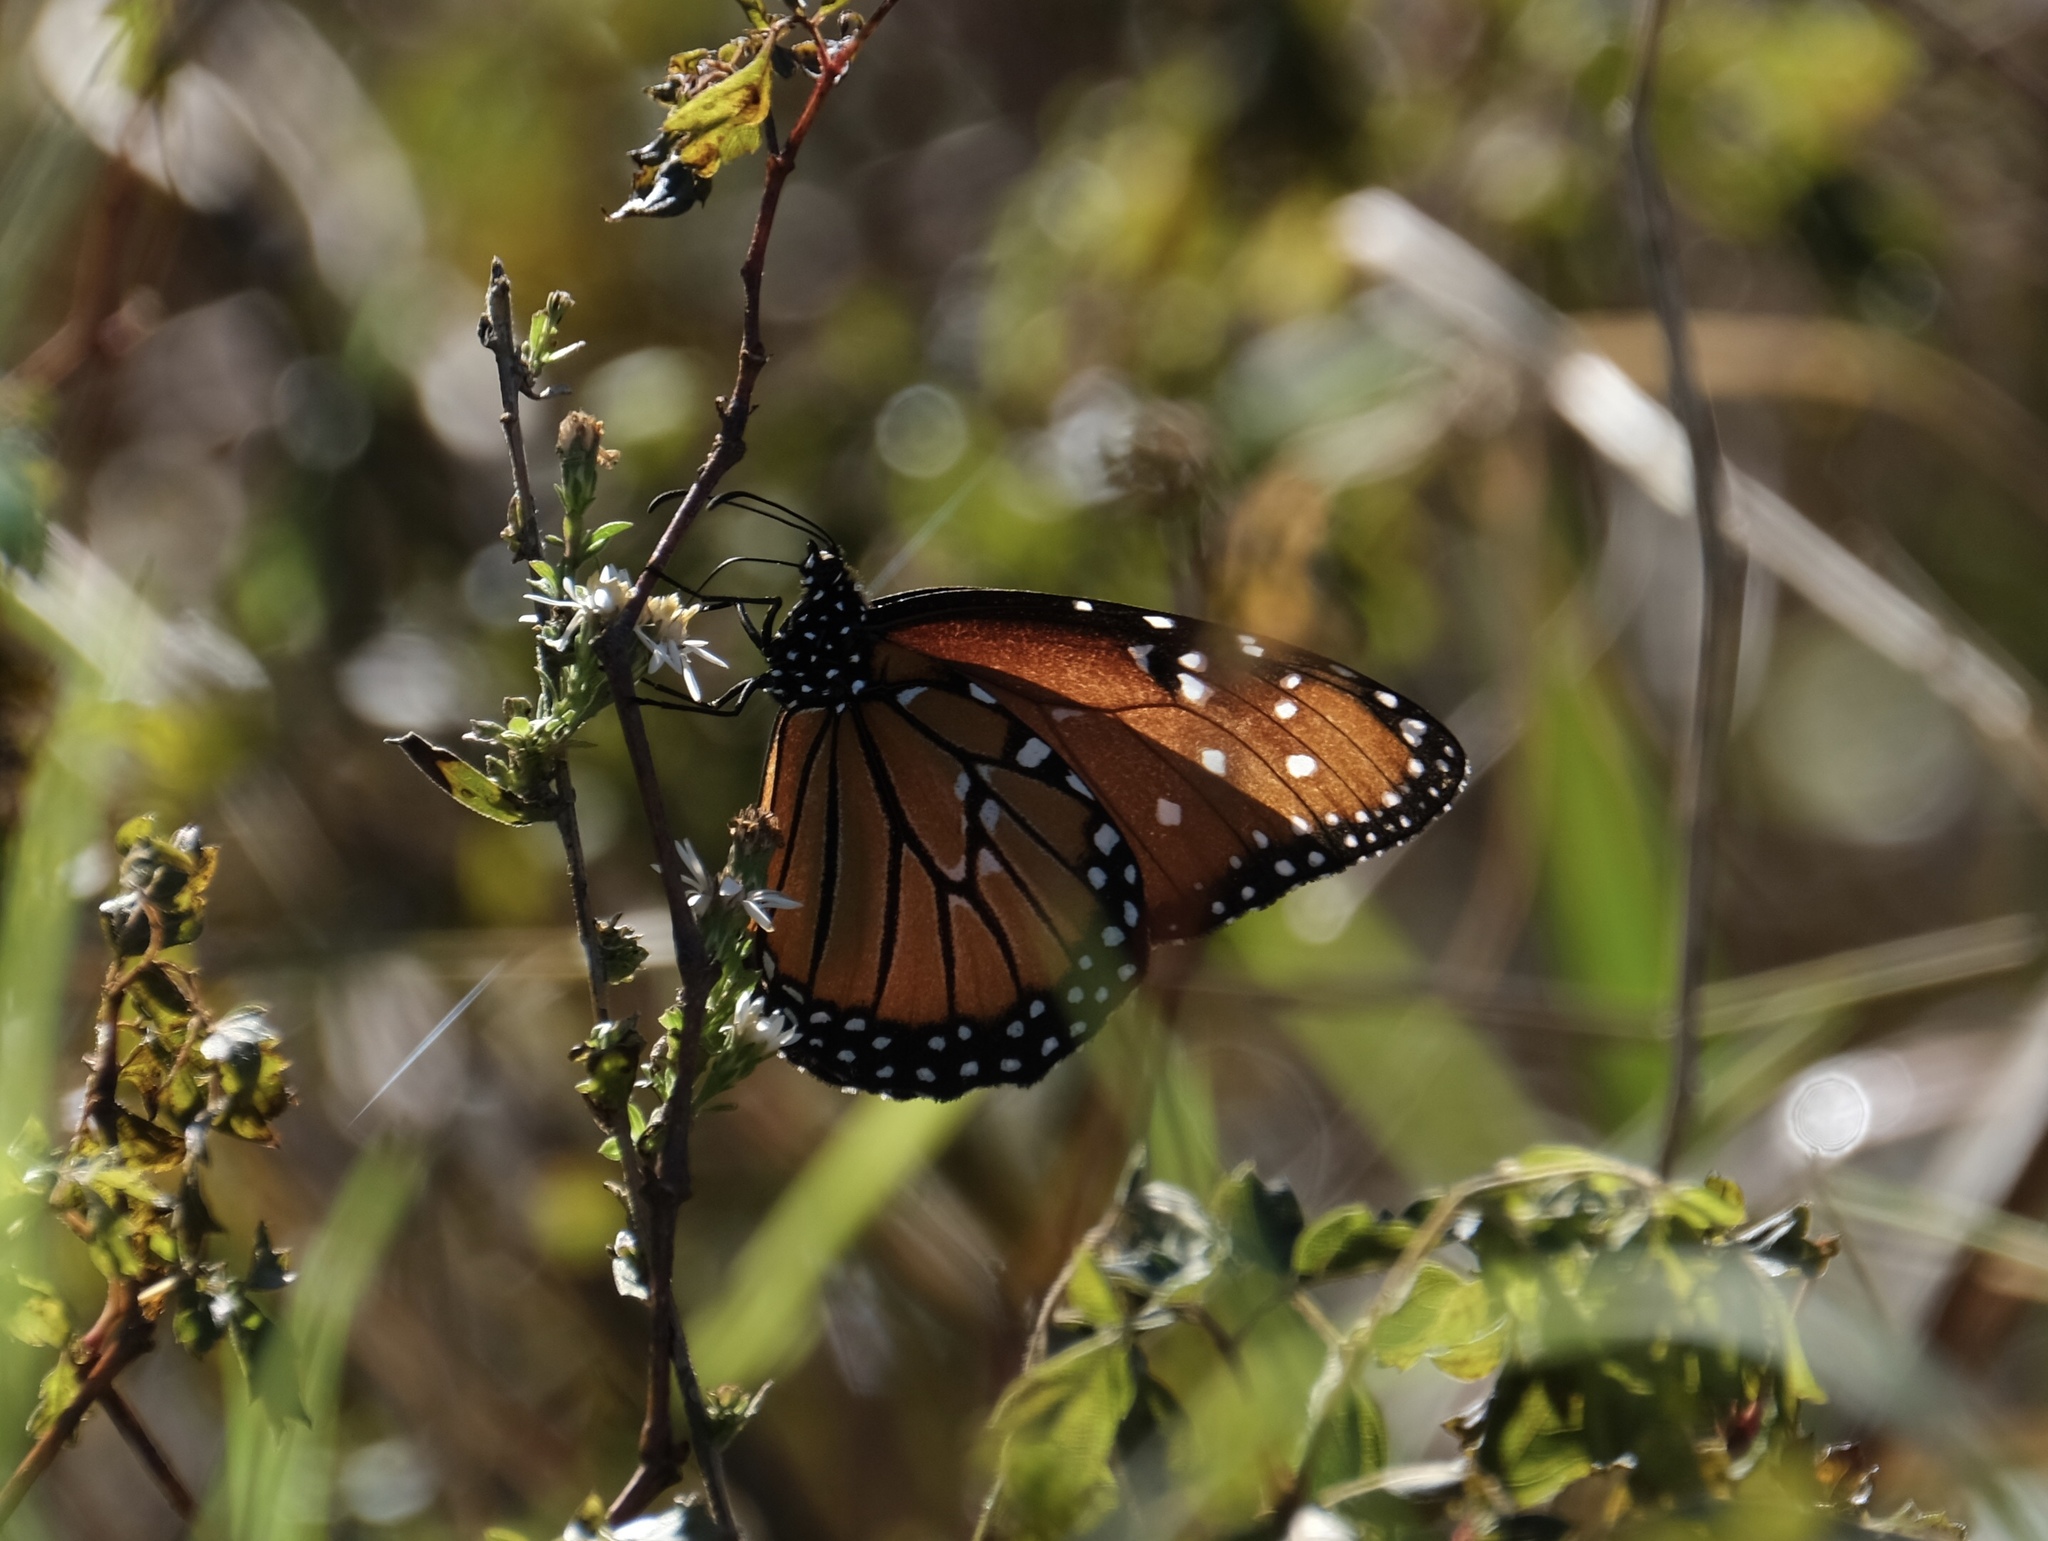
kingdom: Animalia
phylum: Arthropoda
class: Insecta
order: Lepidoptera
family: Nymphalidae
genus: Danaus
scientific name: Danaus gilippus
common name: Queen
